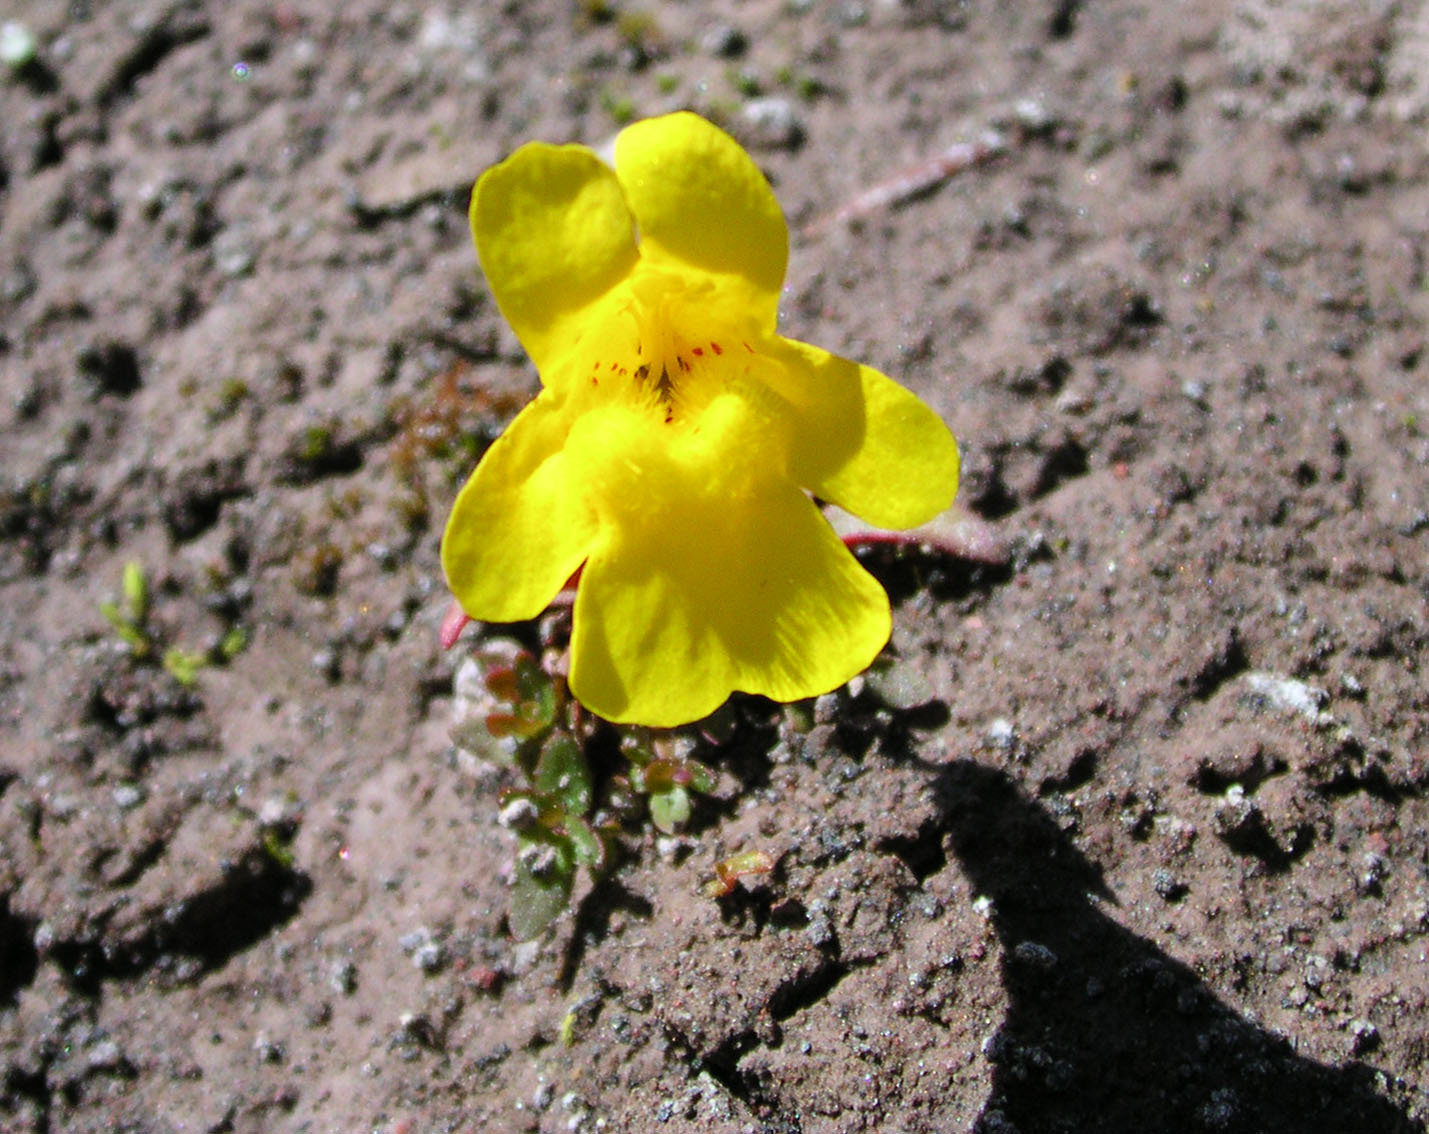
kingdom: Plantae
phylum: Tracheophyta
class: Magnoliopsida
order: Lamiales
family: Phrymaceae
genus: Erythranthe
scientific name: Erythranthe caespitosa
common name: Subalpine monkeyflower
